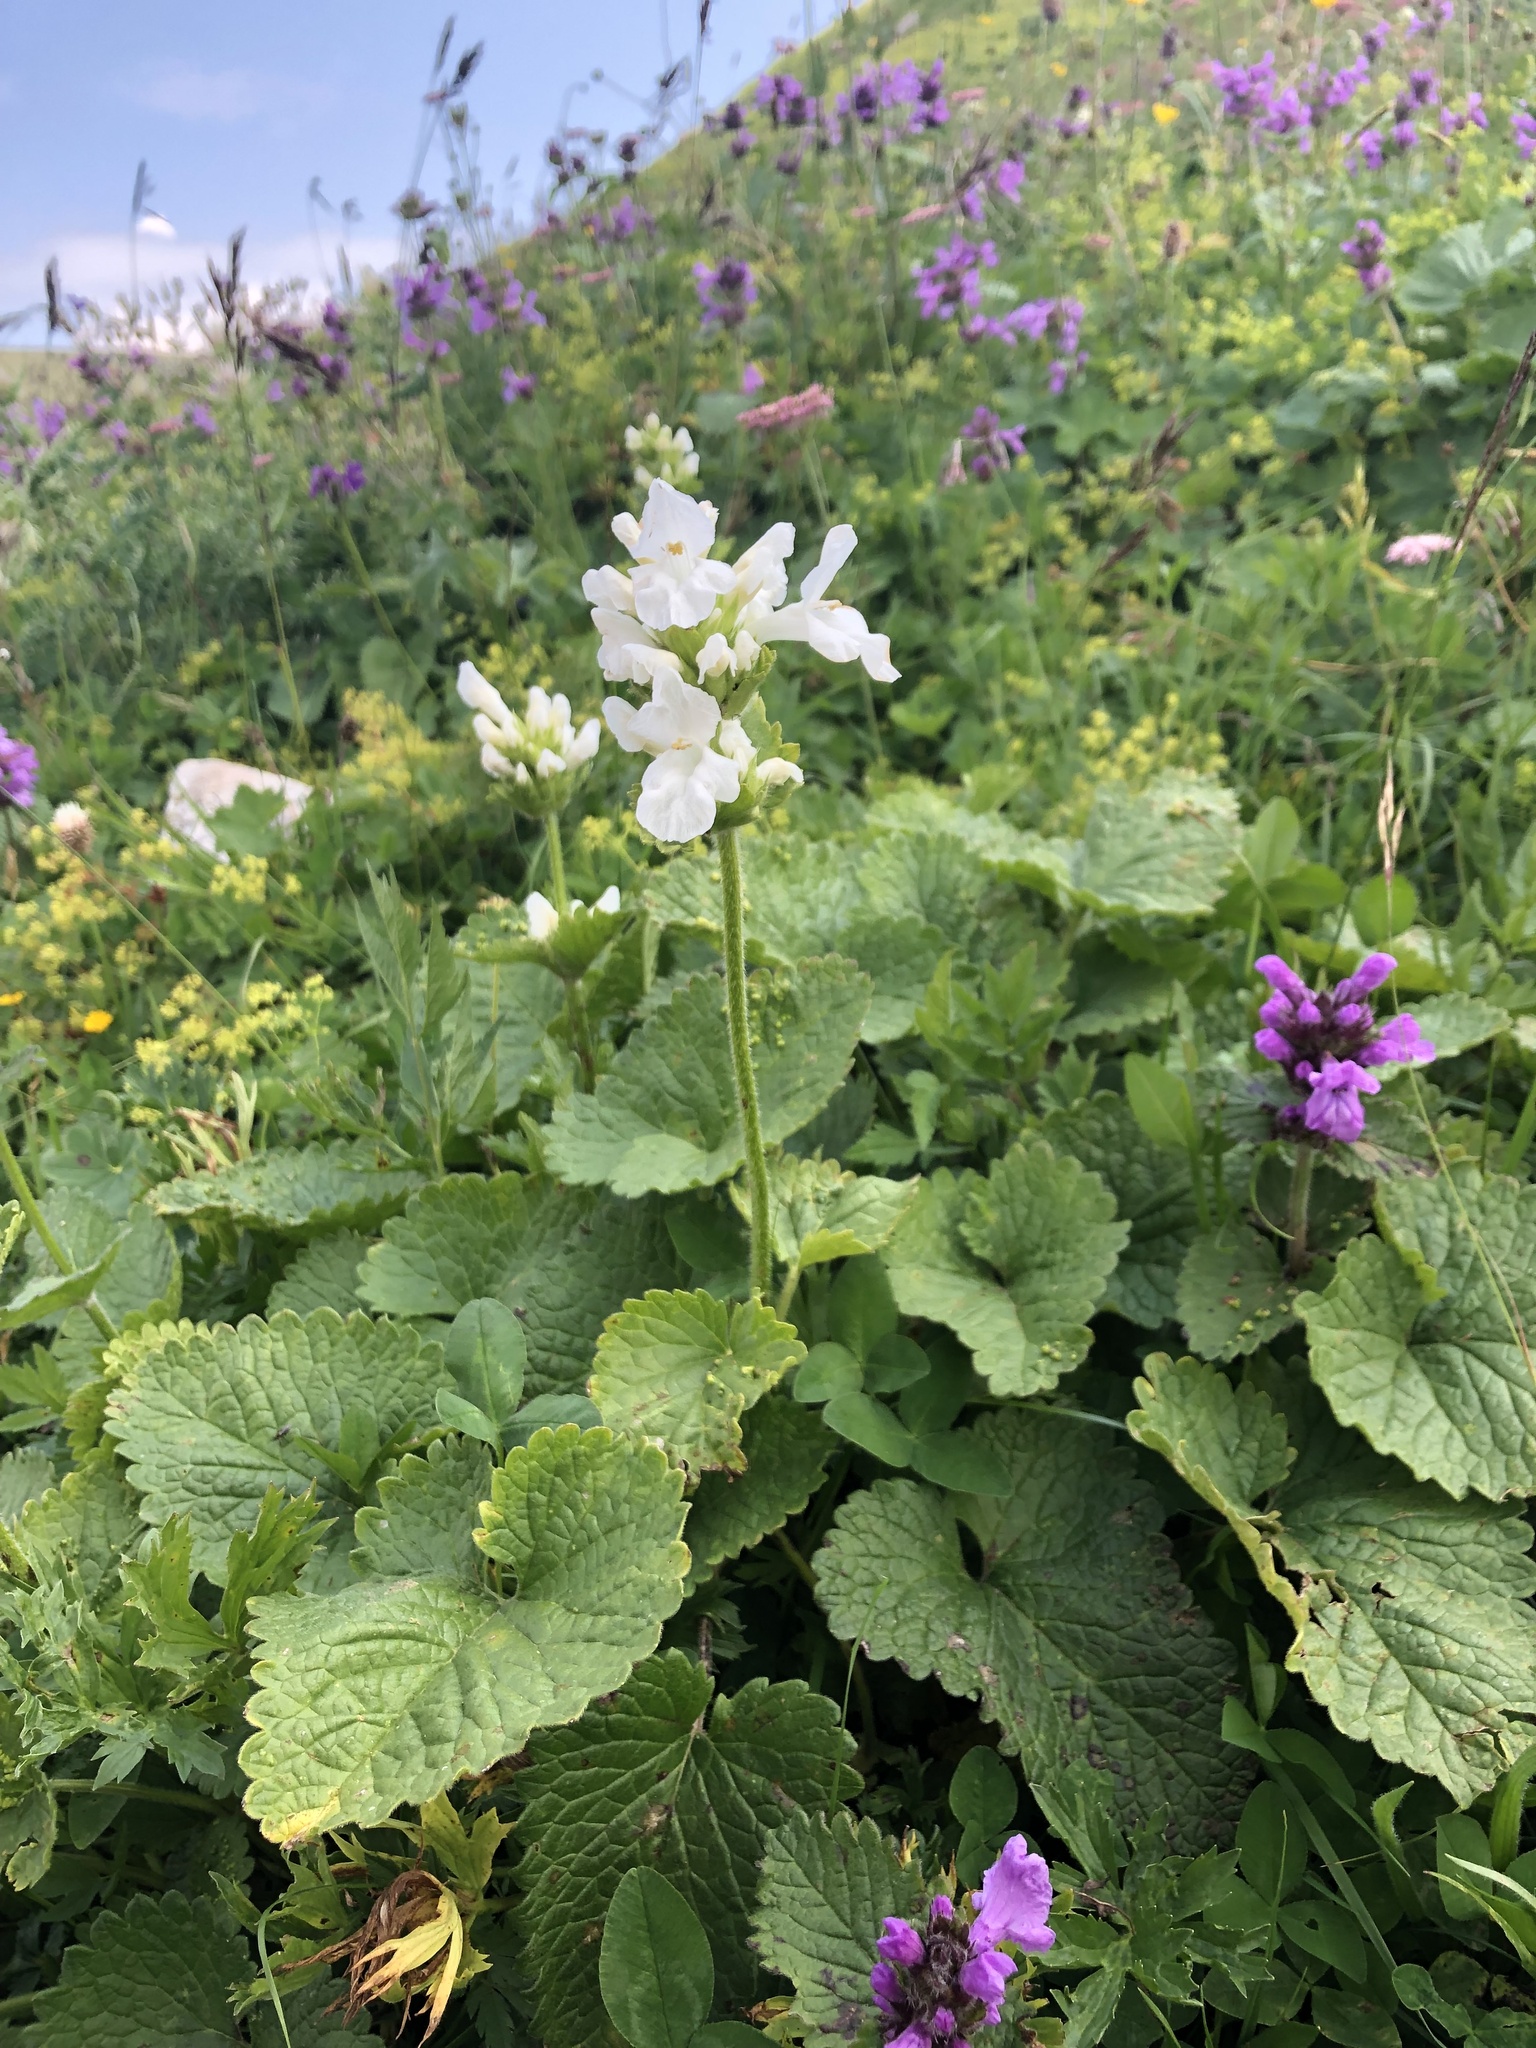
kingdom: Plantae
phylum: Tracheophyta
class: Magnoliopsida
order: Lamiales
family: Lamiaceae
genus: Betonica
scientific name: Betonica macrantha
